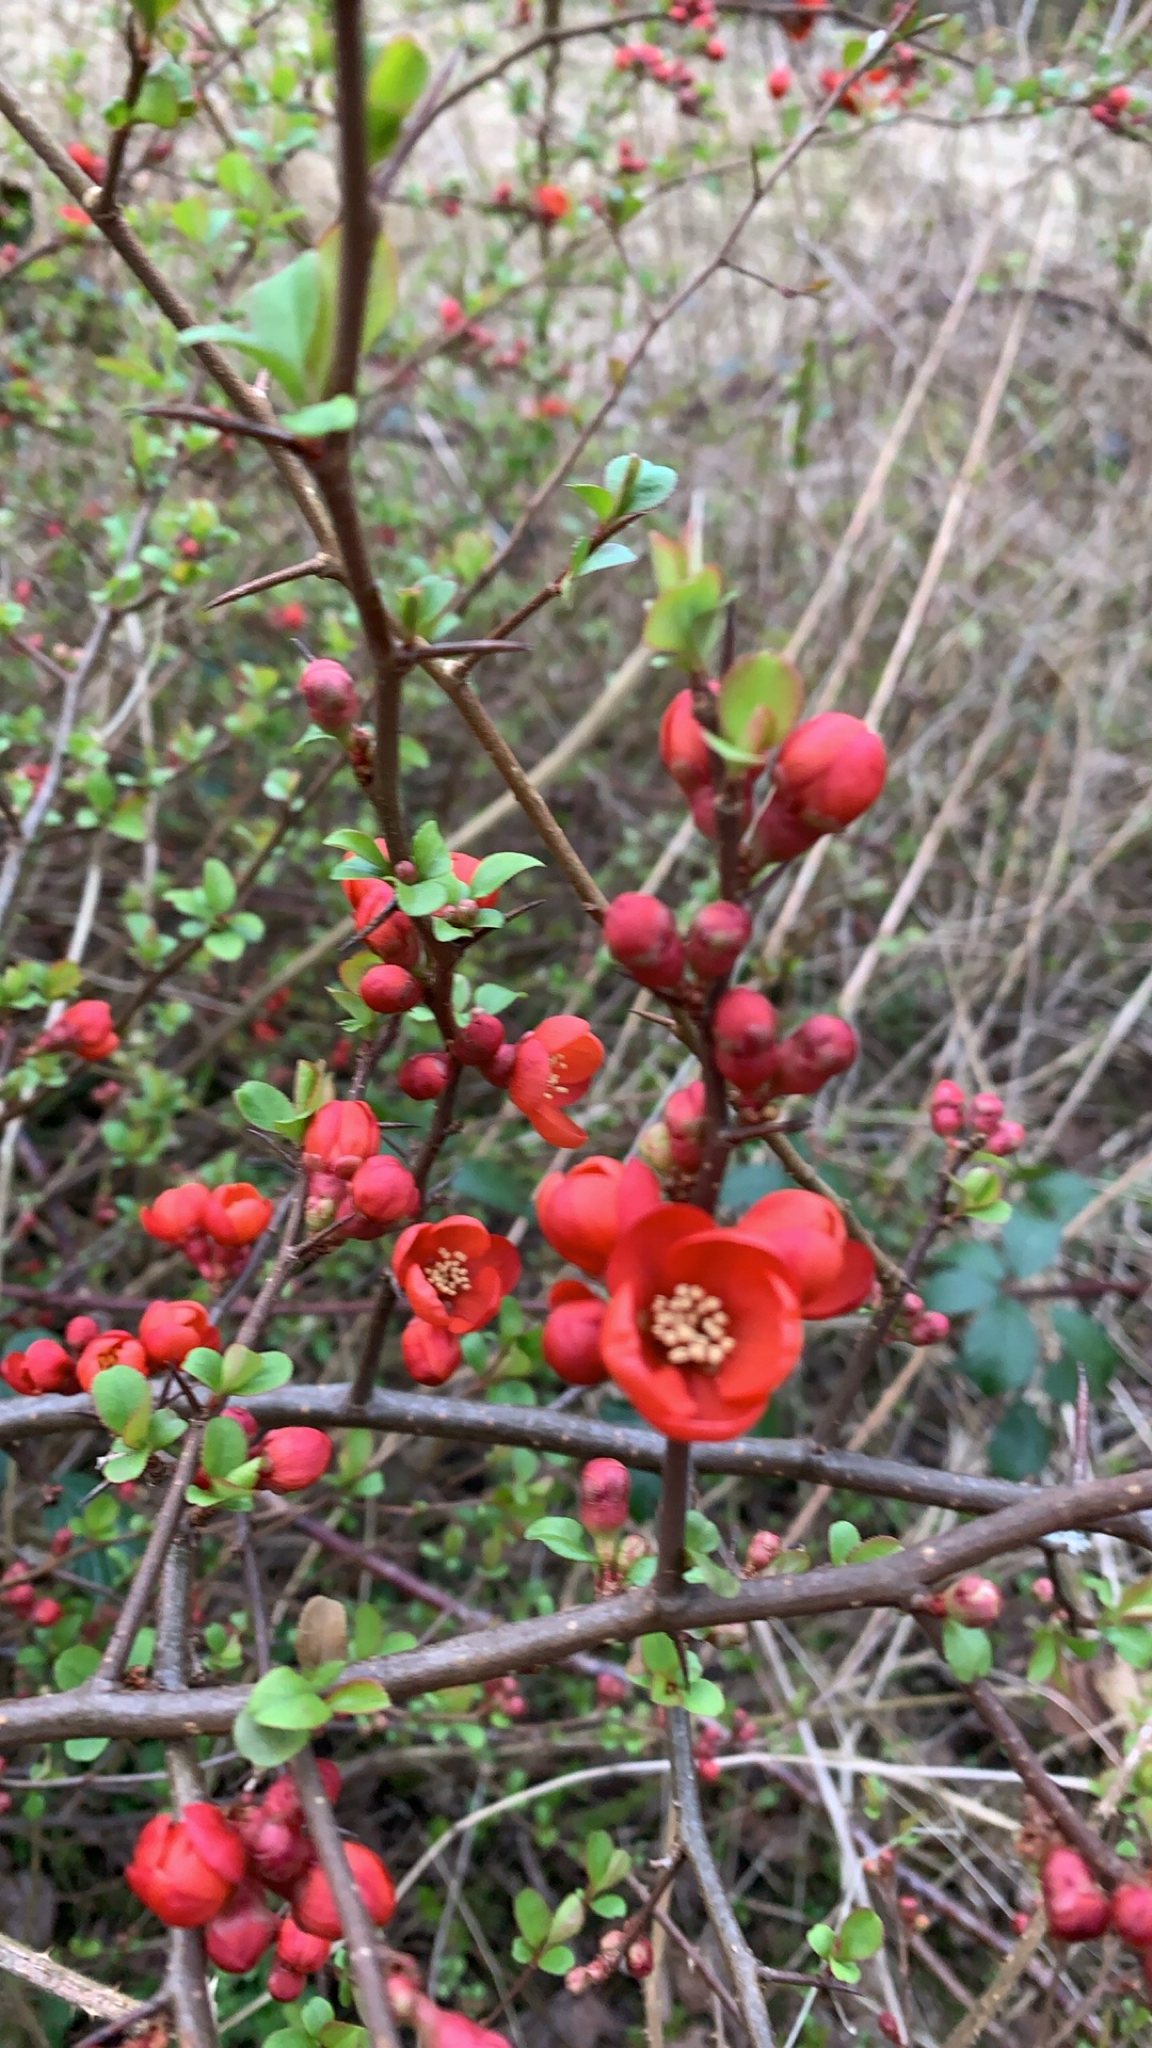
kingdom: Plantae
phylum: Tracheophyta
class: Magnoliopsida
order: Rosales
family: Rosaceae
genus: Chaenomeles
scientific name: Chaenomeles speciosa
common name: Japanese quince
